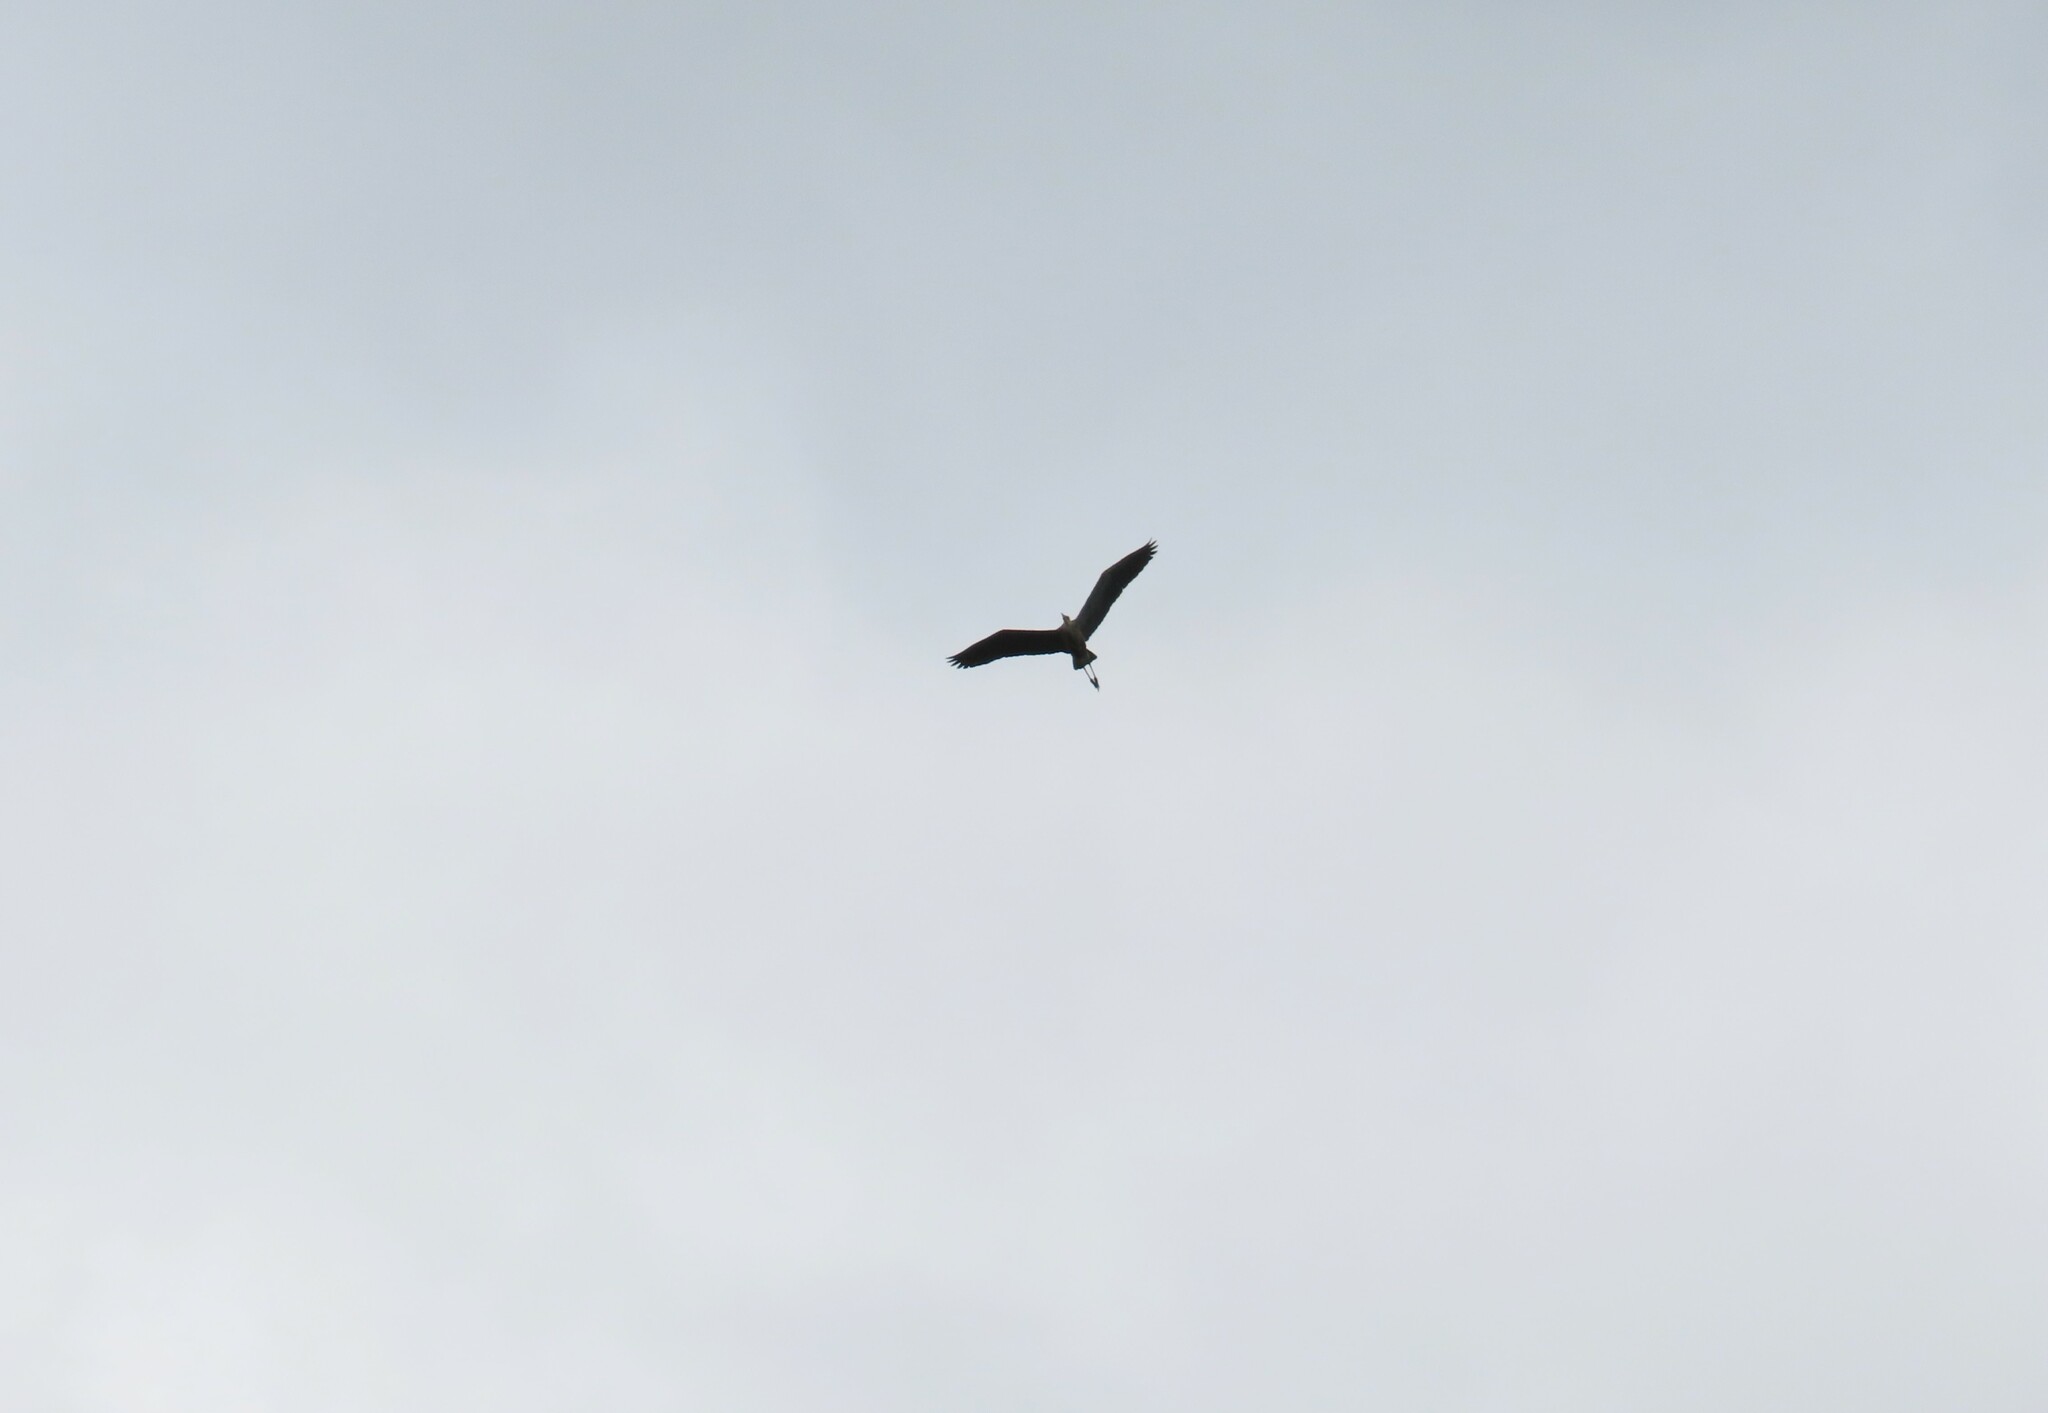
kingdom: Animalia
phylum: Chordata
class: Aves
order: Pelecaniformes
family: Ardeidae
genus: Ardea
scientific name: Ardea herodias
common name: Great blue heron
